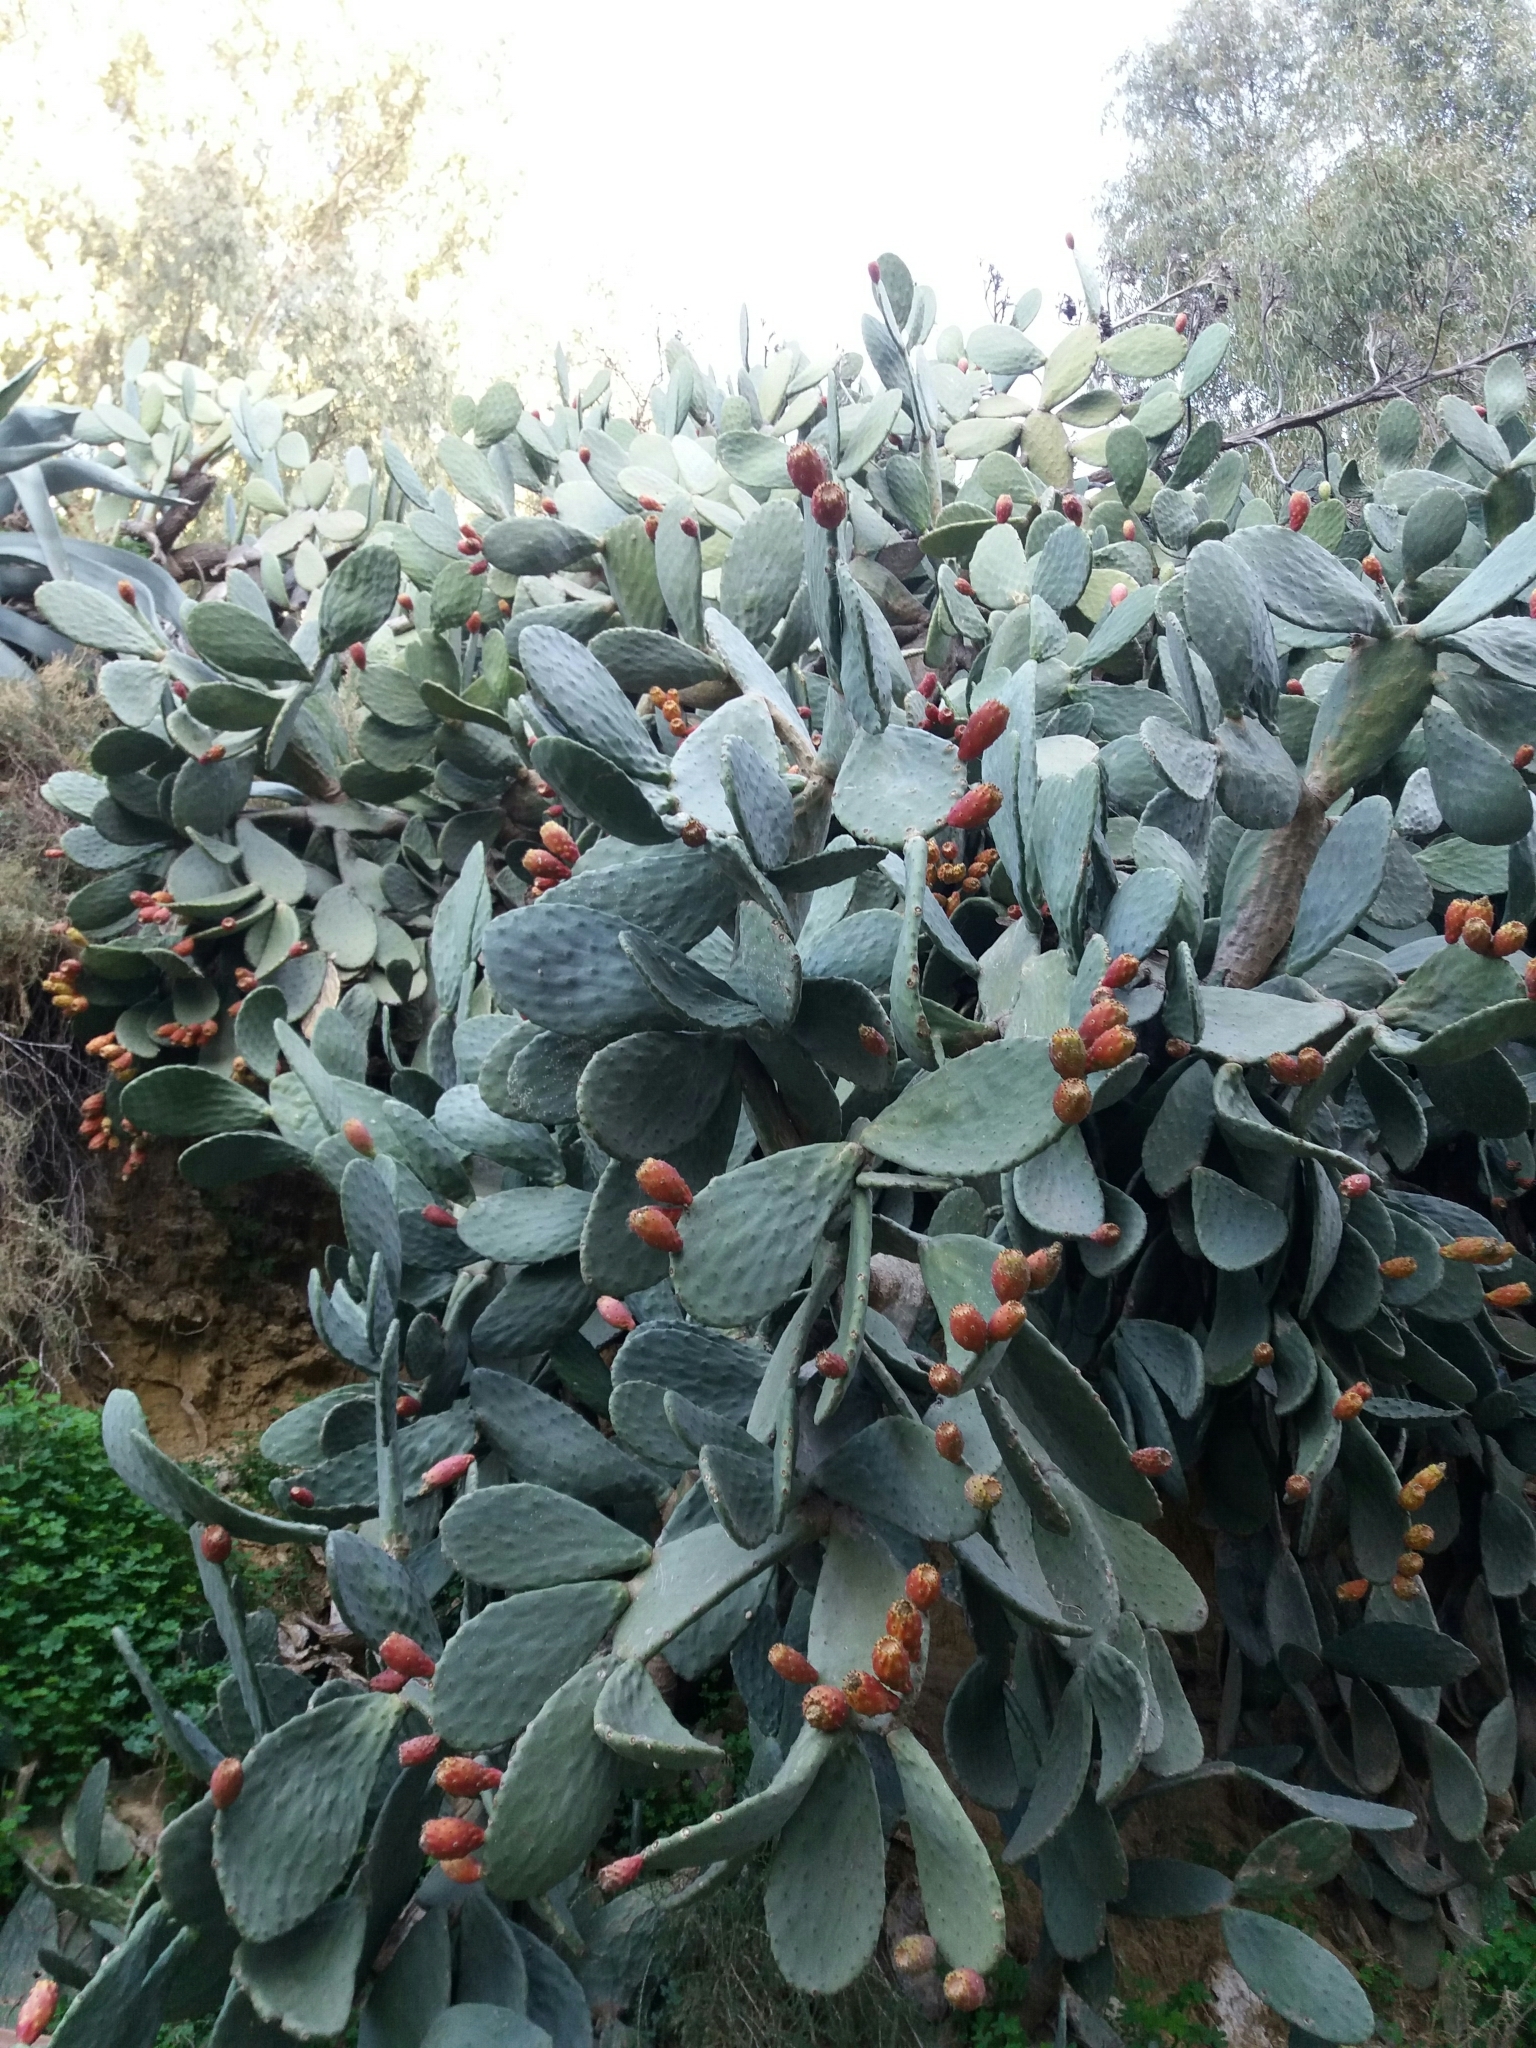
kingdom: Plantae
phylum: Tracheophyta
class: Magnoliopsida
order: Caryophyllales
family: Cactaceae
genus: Opuntia
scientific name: Opuntia ficus-indica
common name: Barbary fig
